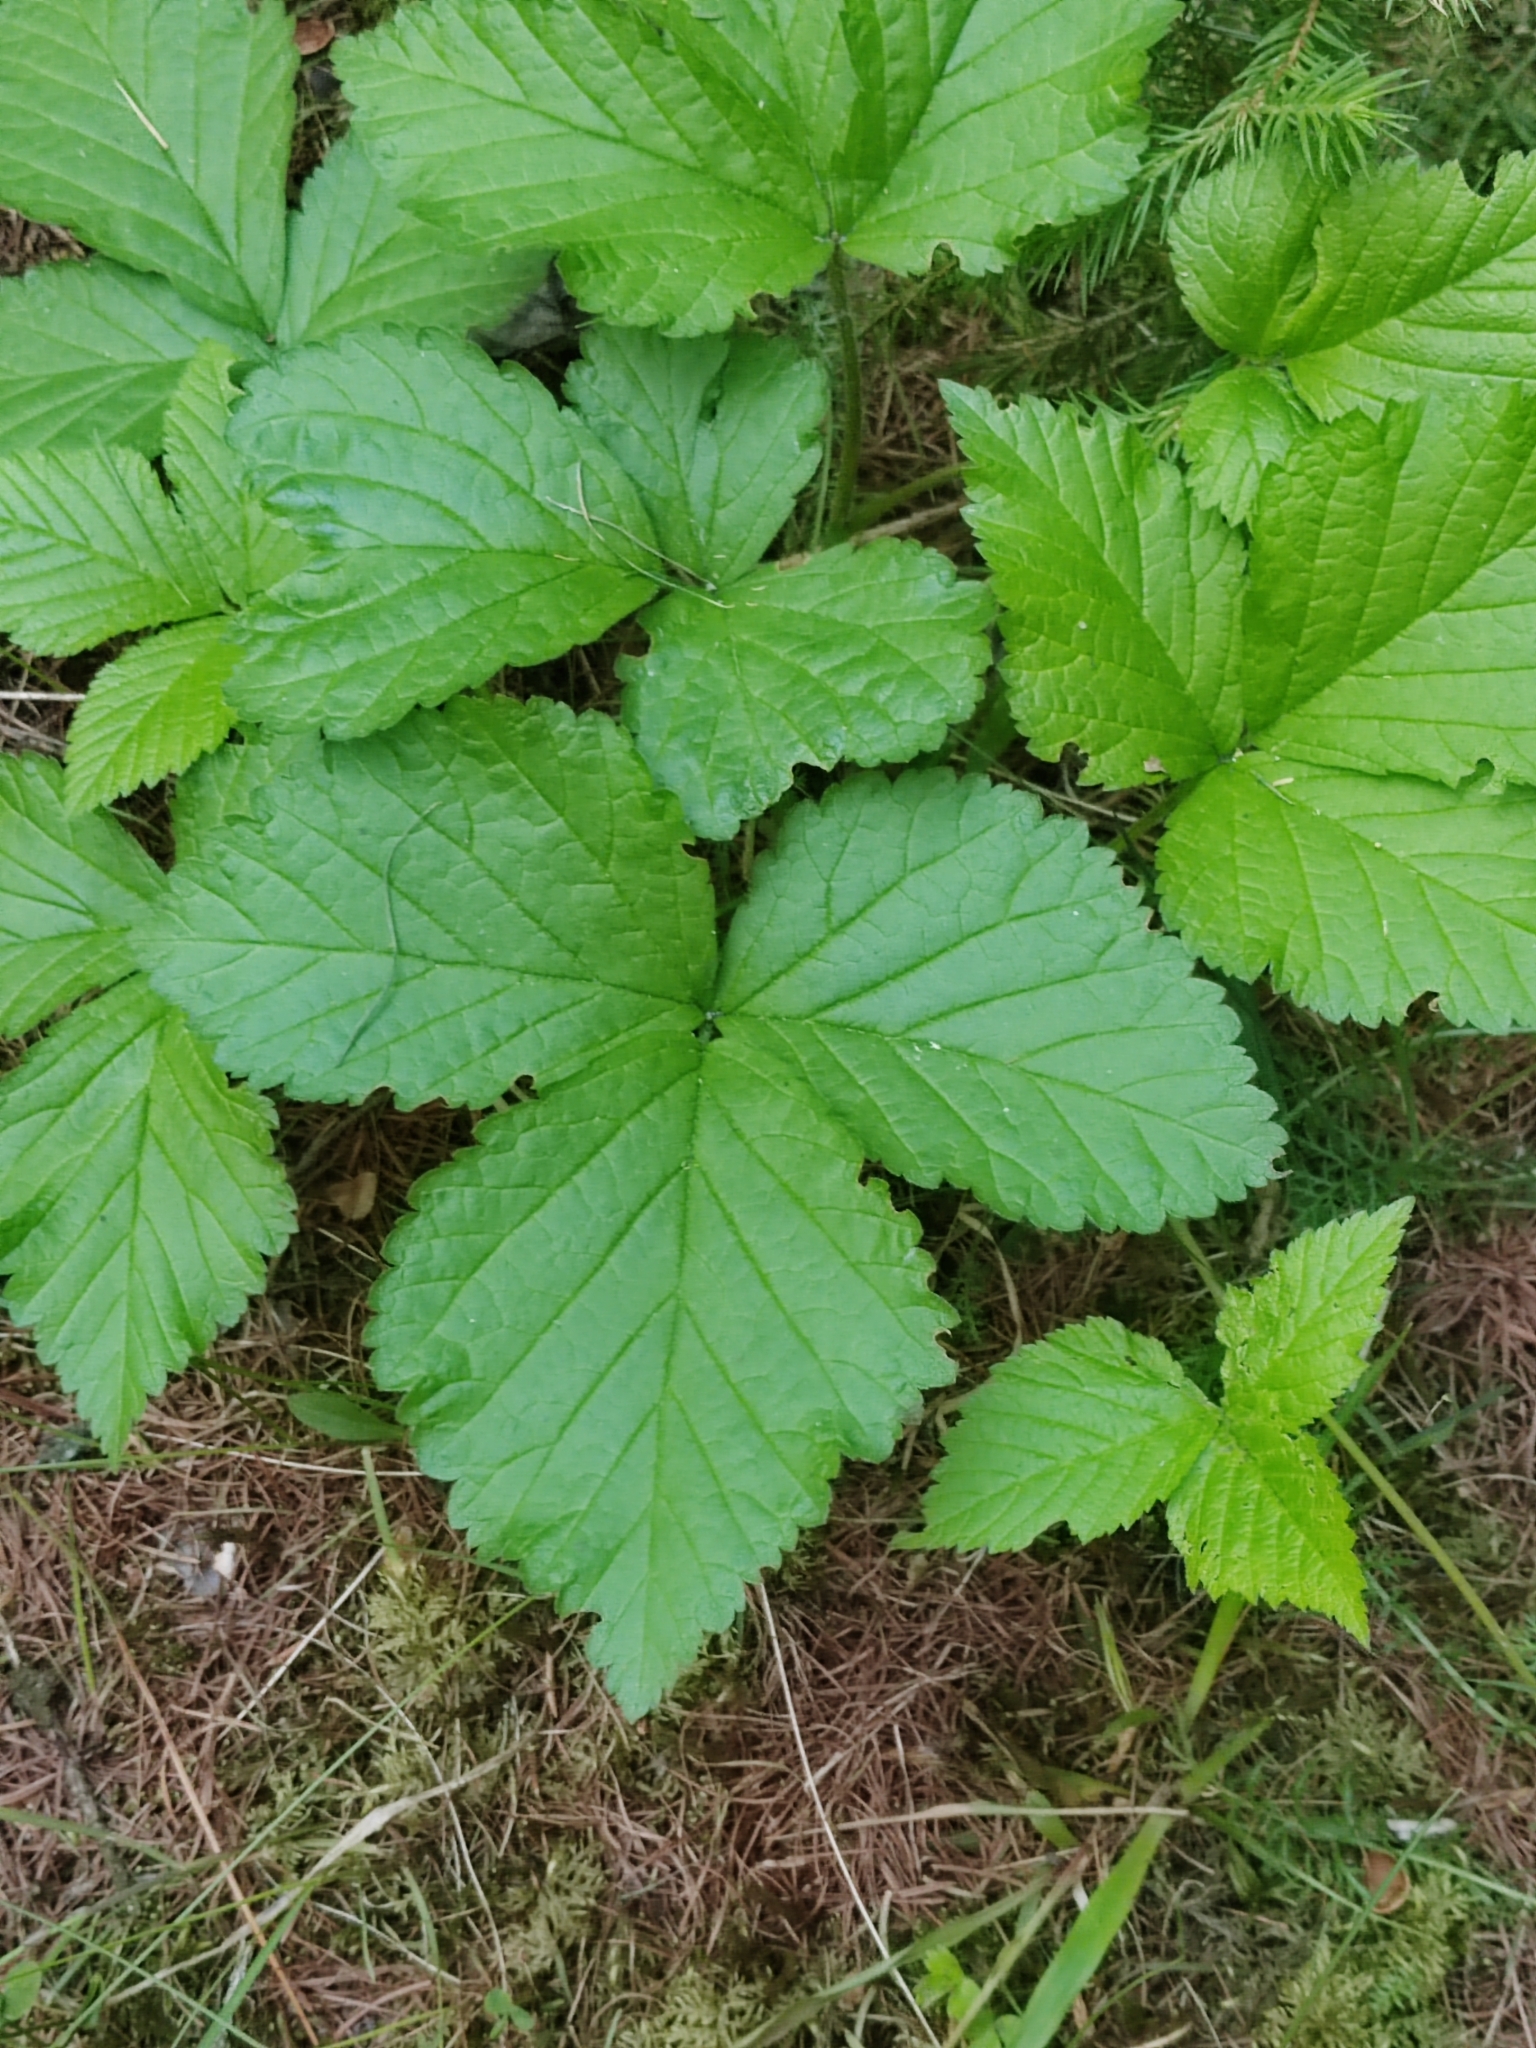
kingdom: Plantae
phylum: Tracheophyta
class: Magnoliopsida
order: Rosales
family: Rosaceae
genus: Rubus
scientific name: Rubus saxatilis
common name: Stone bramble
